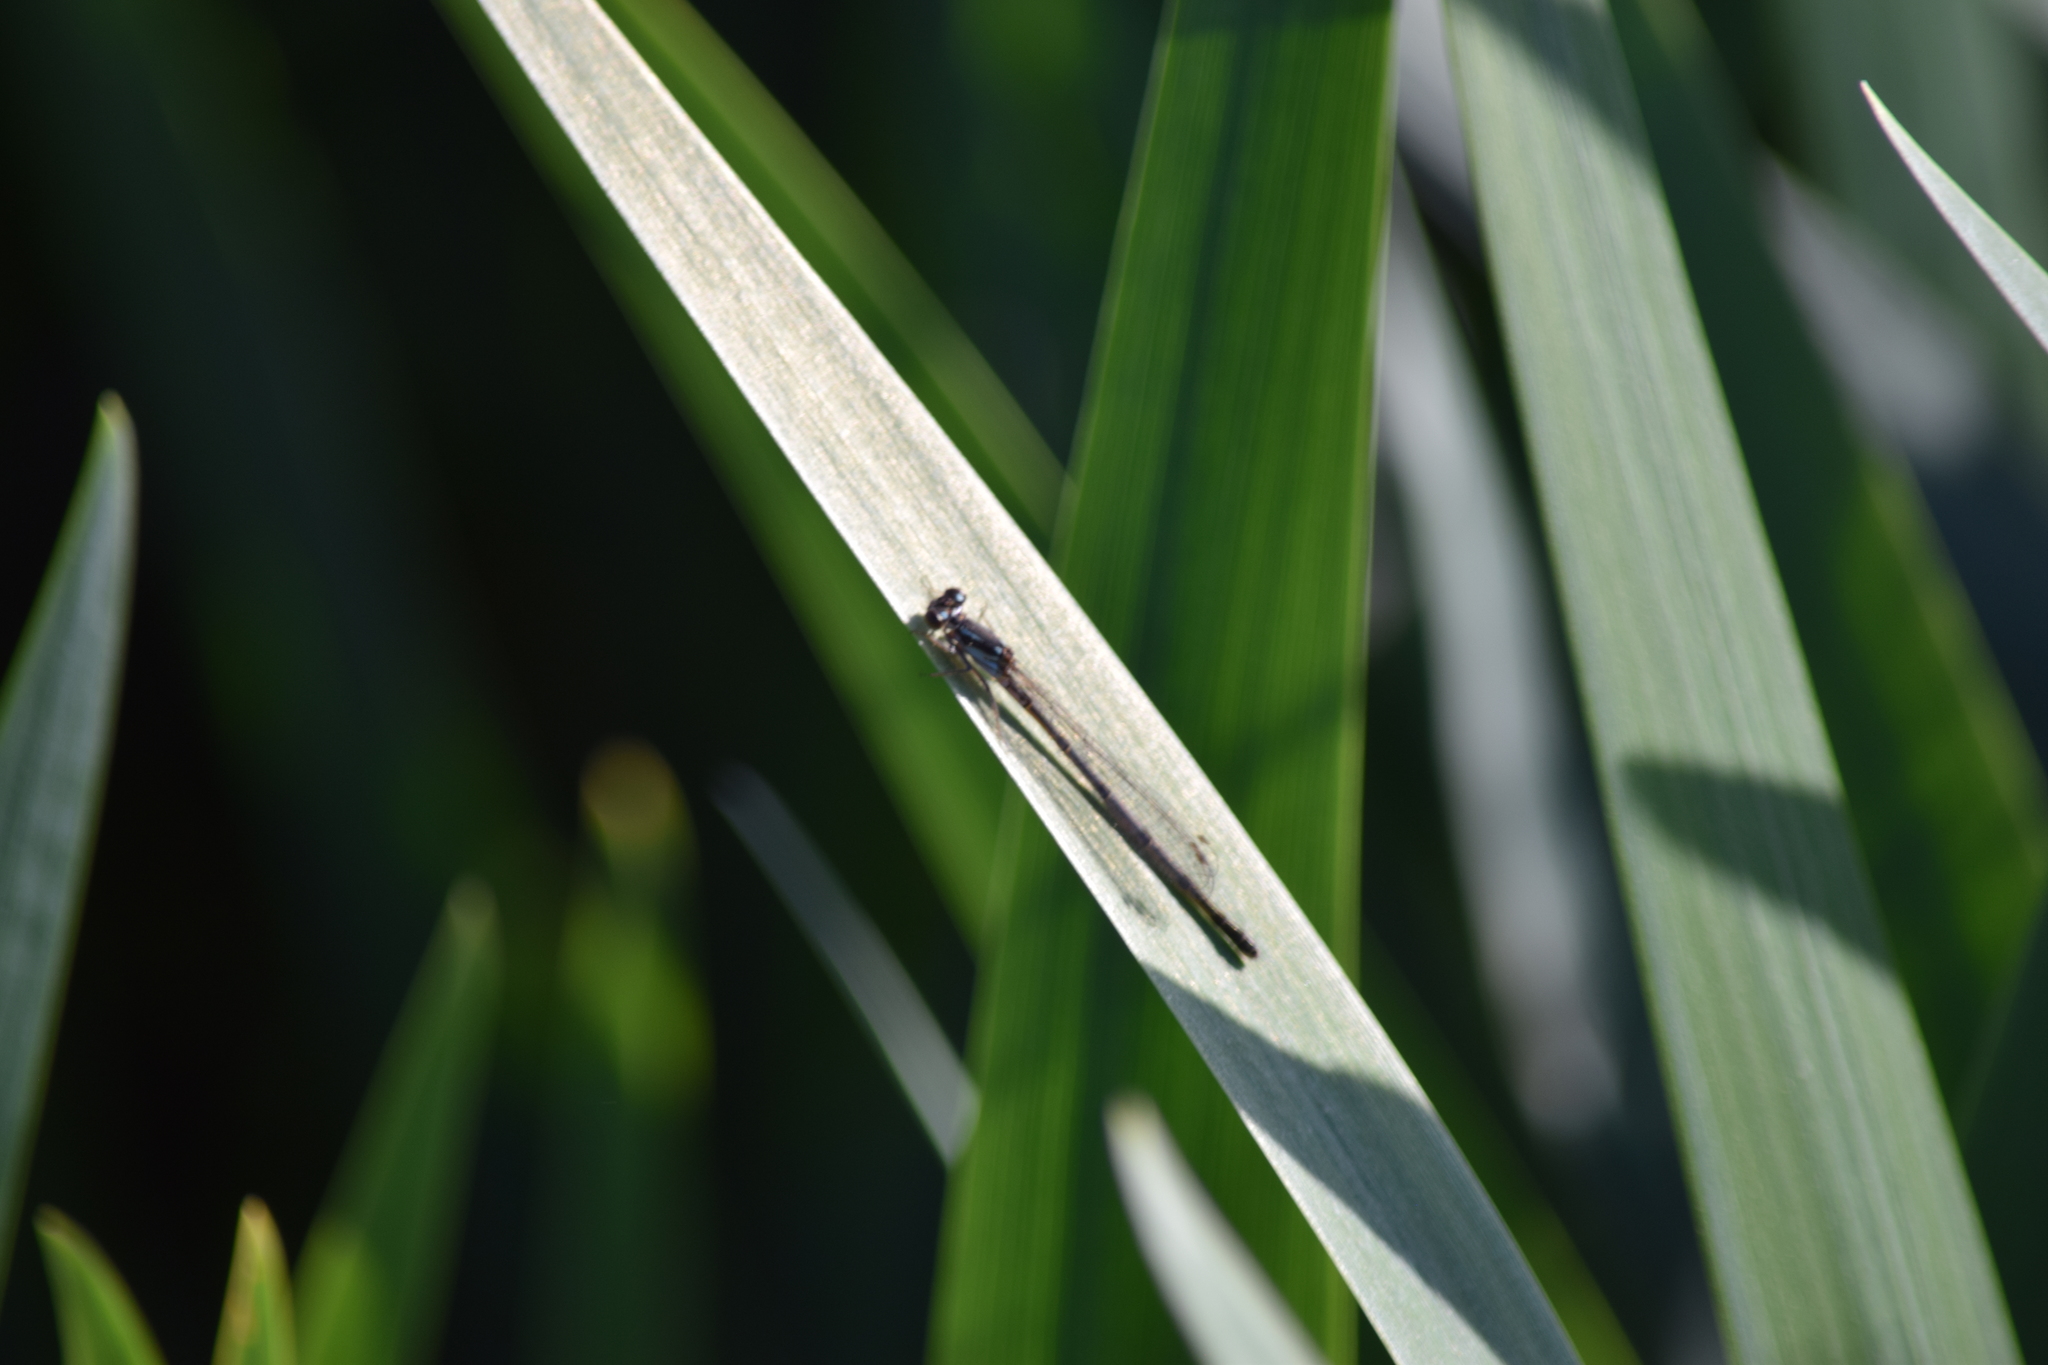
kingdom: Animalia
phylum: Arthropoda
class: Insecta
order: Odonata
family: Coenagrionidae
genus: Ischnura
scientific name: Ischnura posita
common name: Fragile forktail
